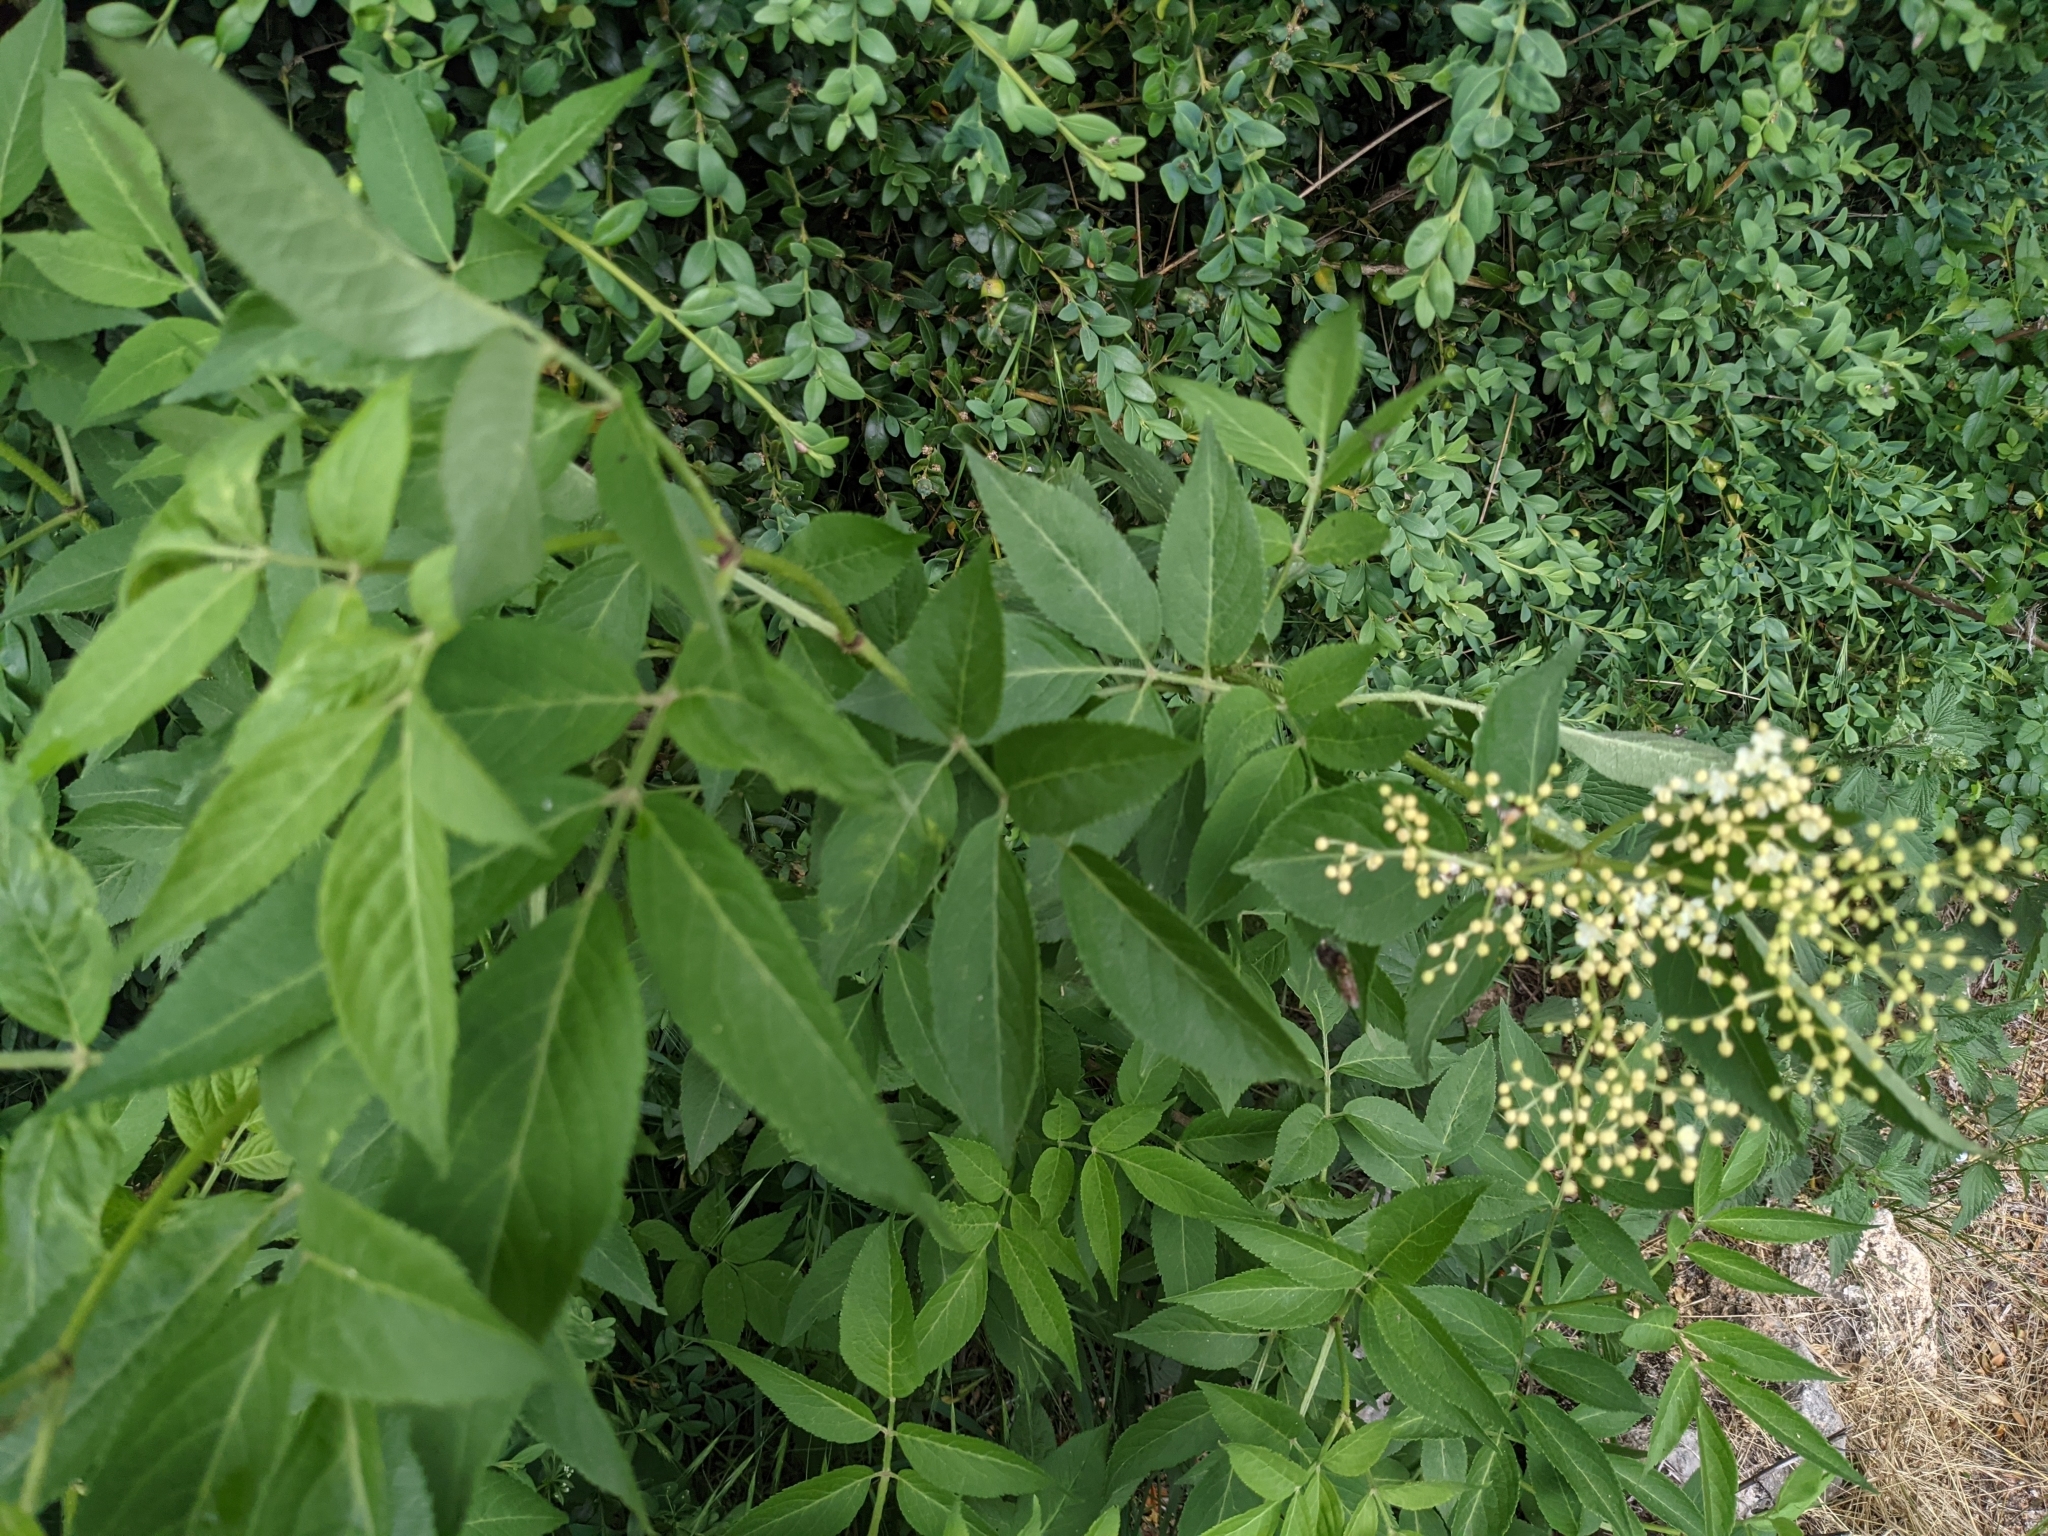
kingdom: Plantae
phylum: Tracheophyta
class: Magnoliopsida
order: Dipsacales
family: Viburnaceae
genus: Sambucus
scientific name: Sambucus nigra
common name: Elder
